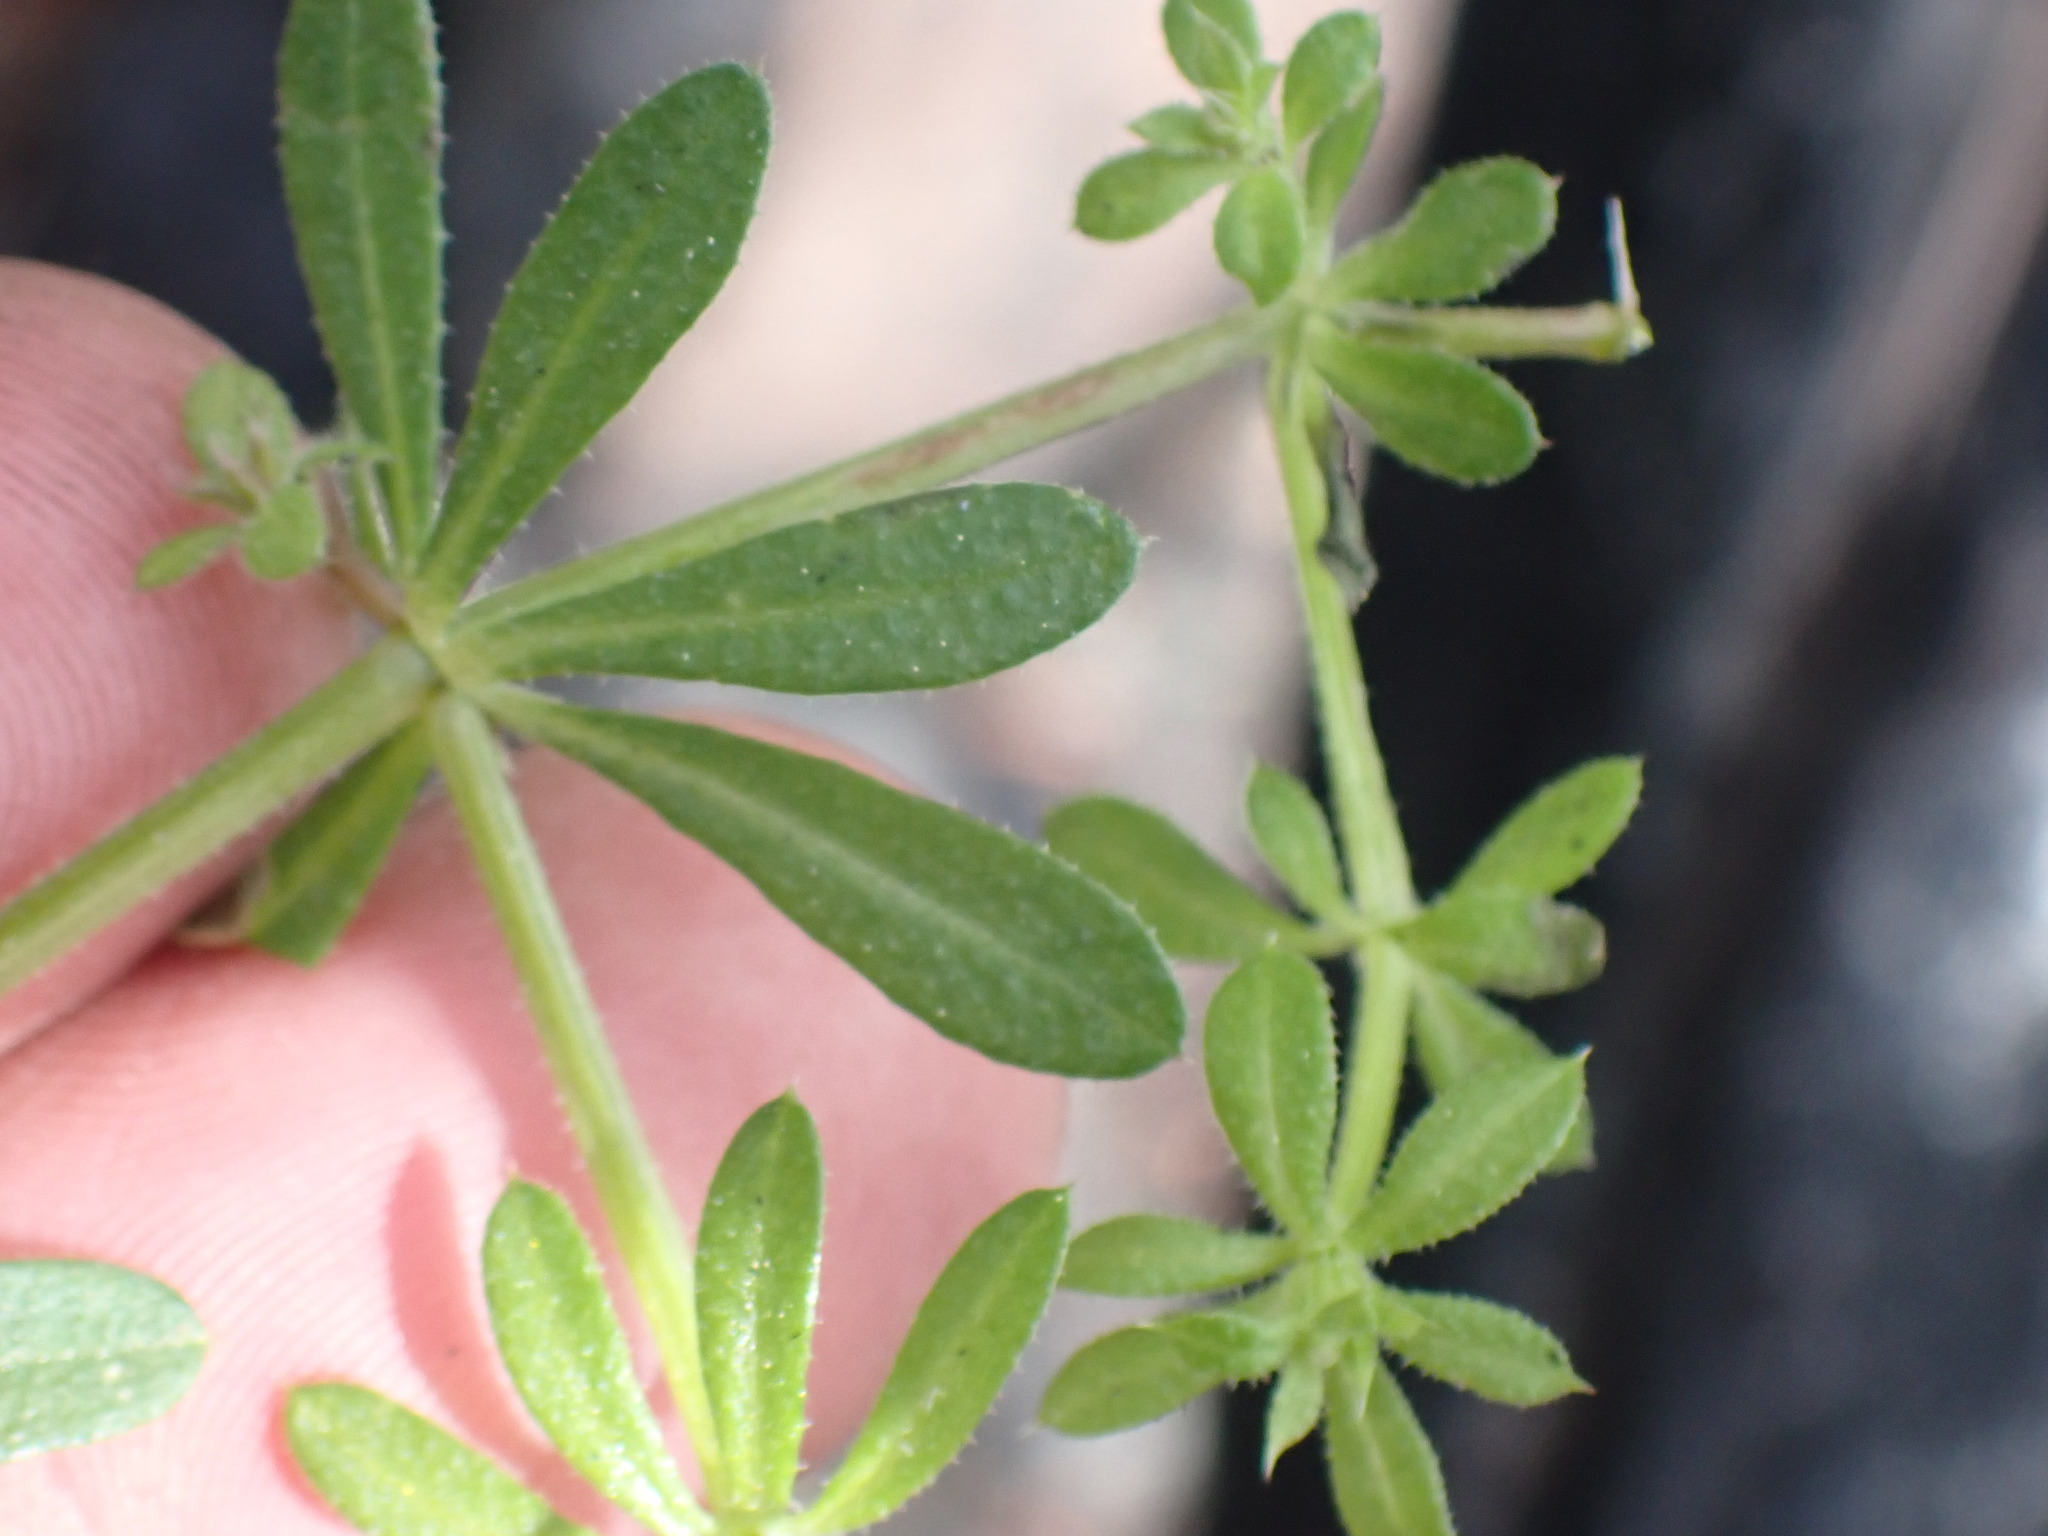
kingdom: Plantae
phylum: Tracheophyta
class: Magnoliopsida
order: Gentianales
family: Rubiaceae
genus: Galium
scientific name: Galium aparine
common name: Cleavers
